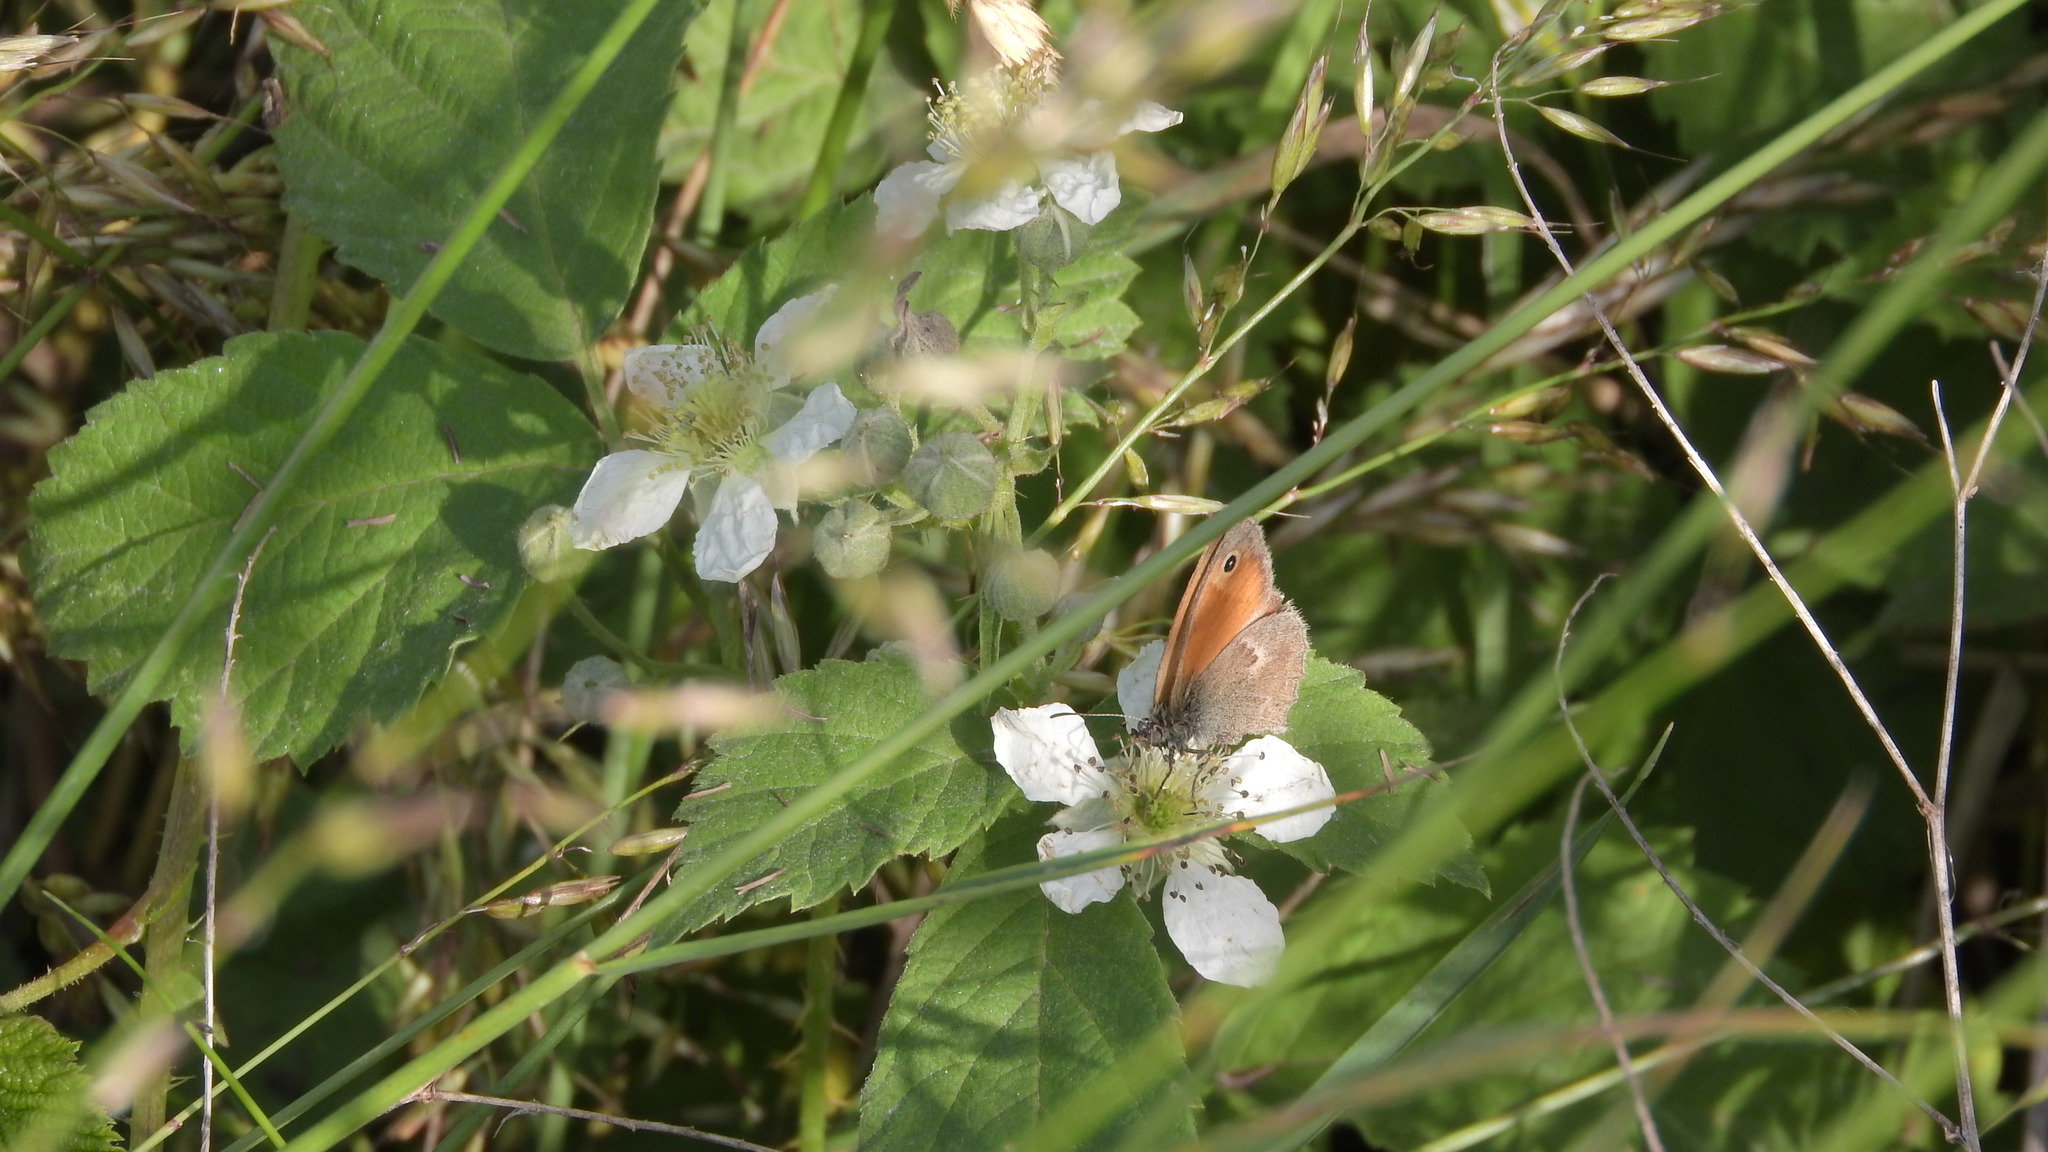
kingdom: Animalia
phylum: Arthropoda
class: Insecta
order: Lepidoptera
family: Nymphalidae
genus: Coenonympha
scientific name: Coenonympha pamphilus
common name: Small heath
